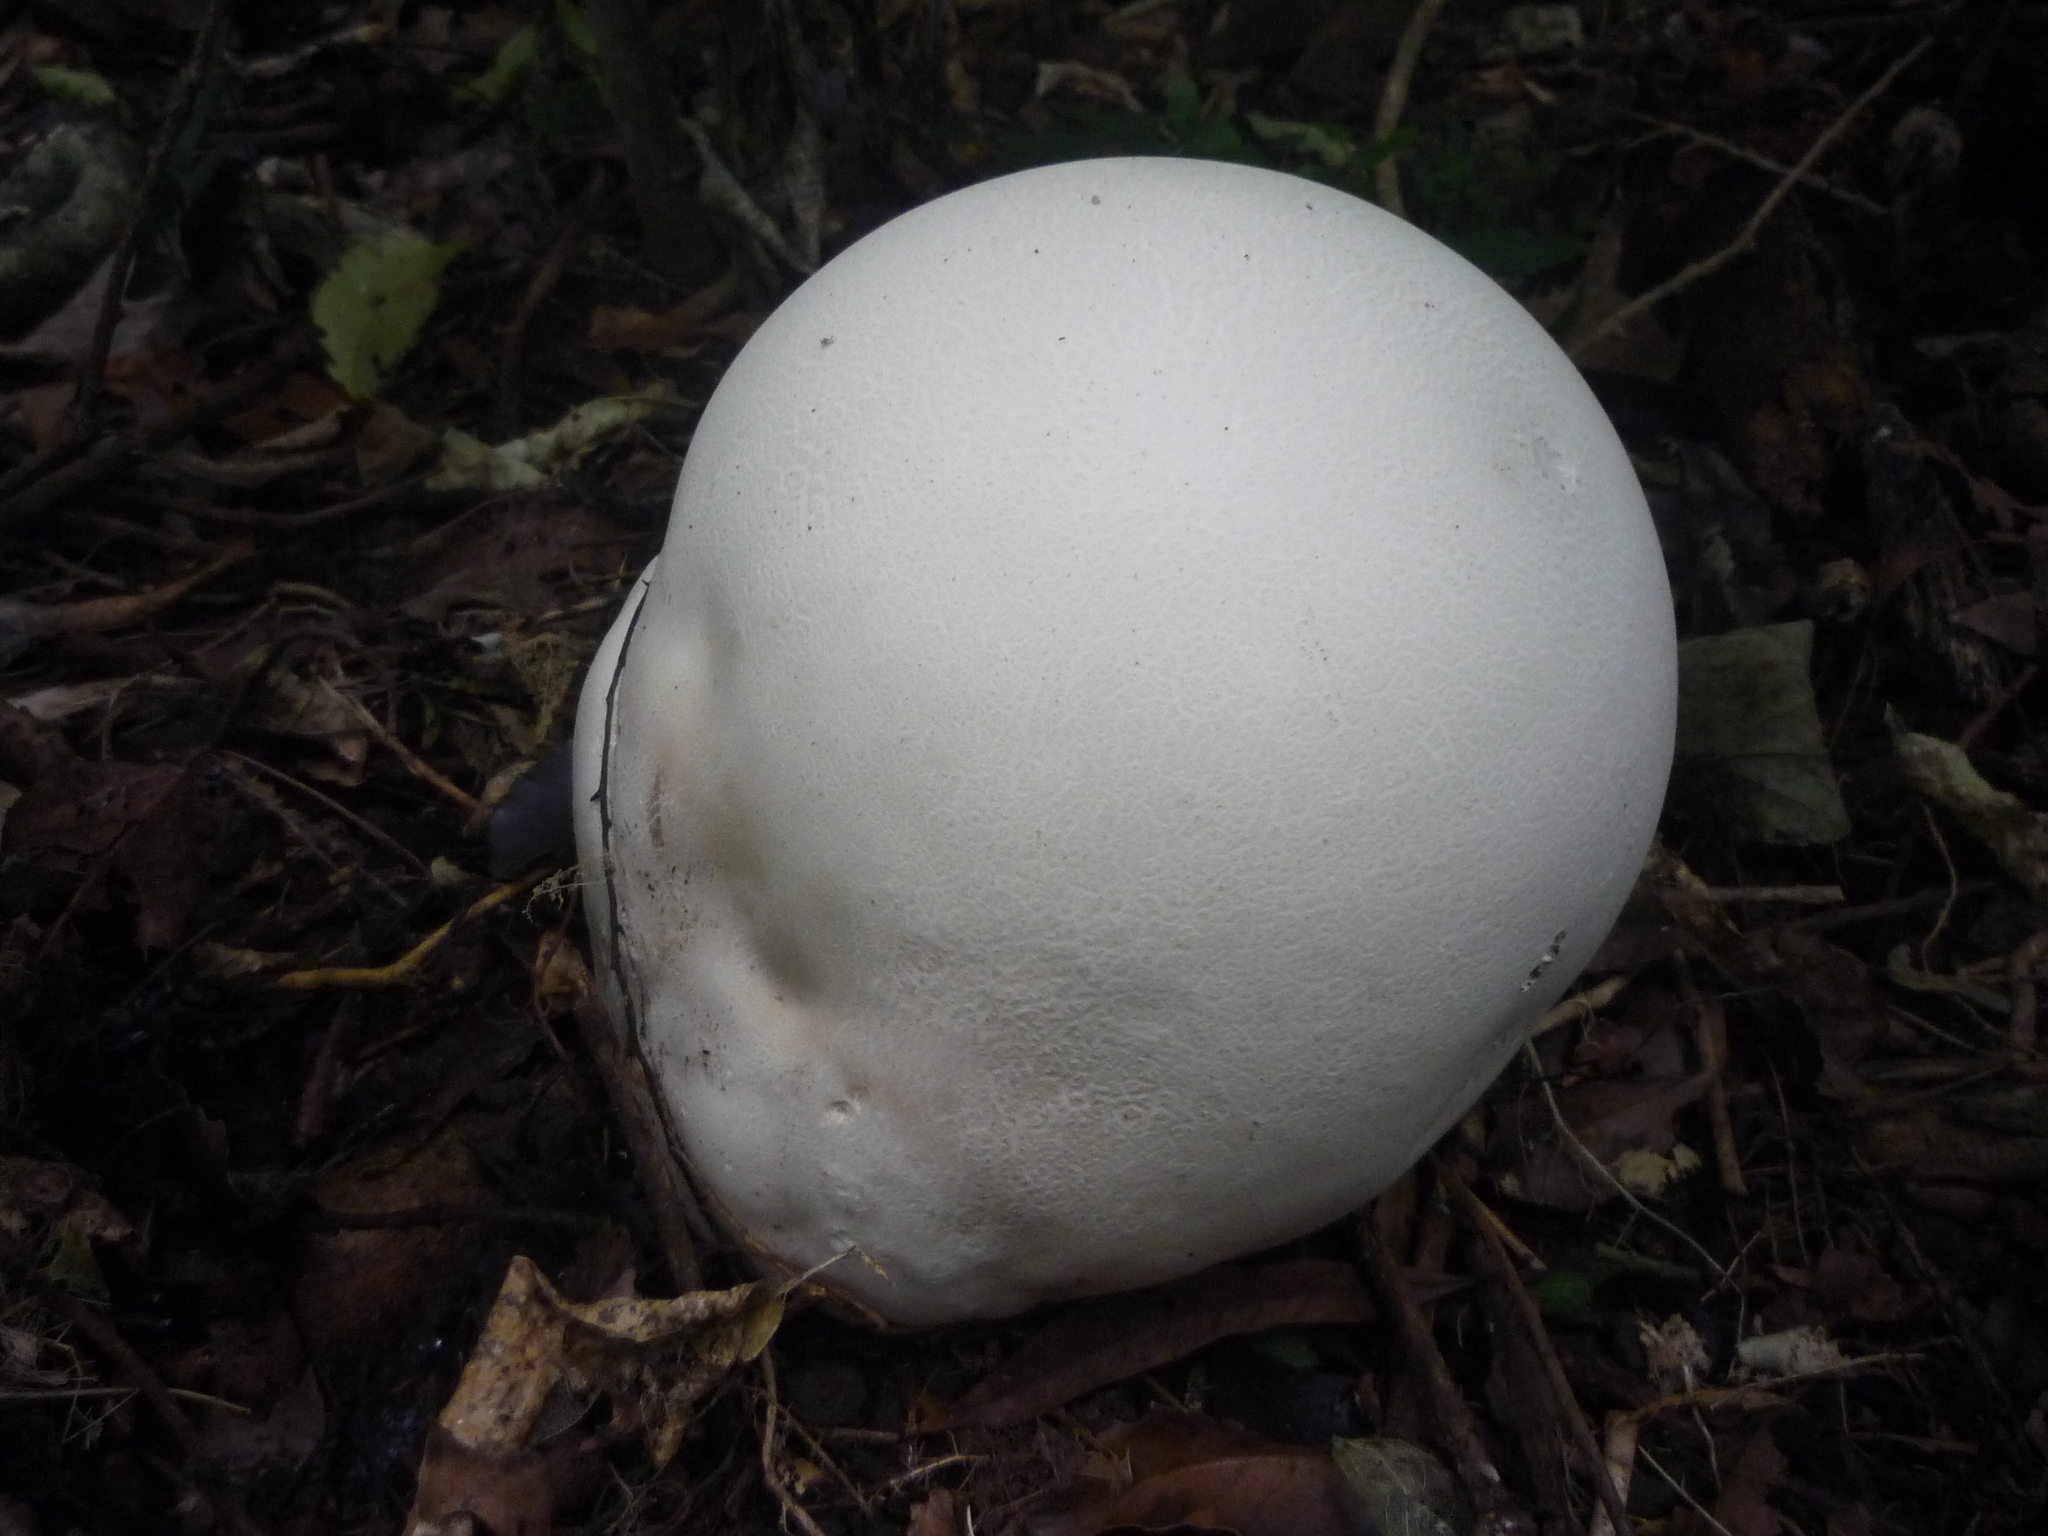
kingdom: Fungi
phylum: Basidiomycota
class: Agaricomycetes
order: Agaricales
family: Lycoperdaceae
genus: Calvatia
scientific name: Calvatia gigantea
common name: Giant puffball
